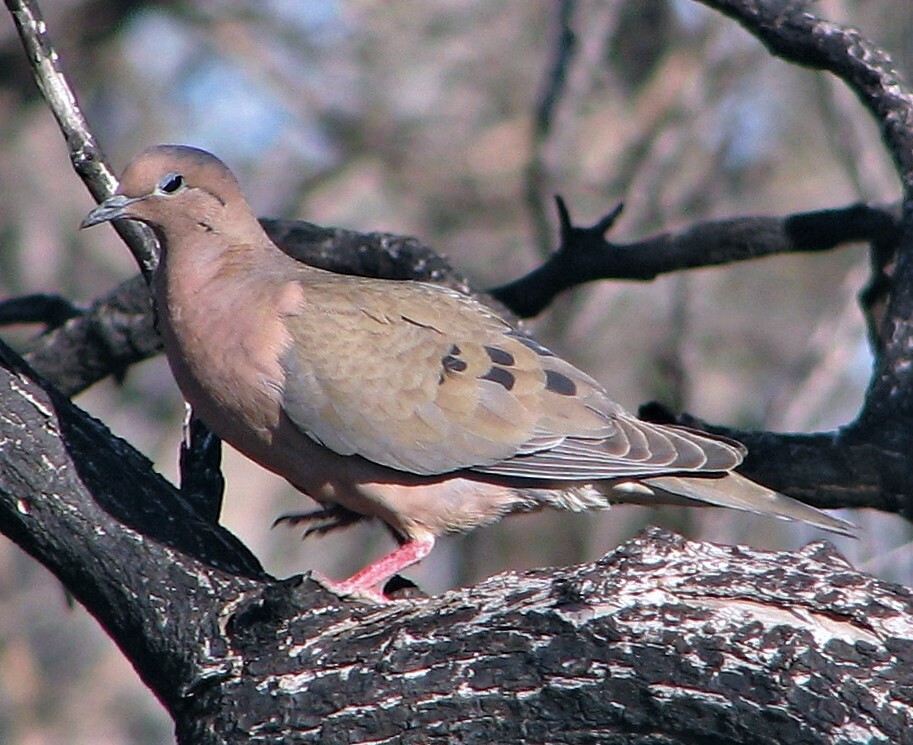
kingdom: Animalia
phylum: Chordata
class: Aves
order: Columbiformes
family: Columbidae
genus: Zenaida
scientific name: Zenaida auriculata
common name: Eared dove
